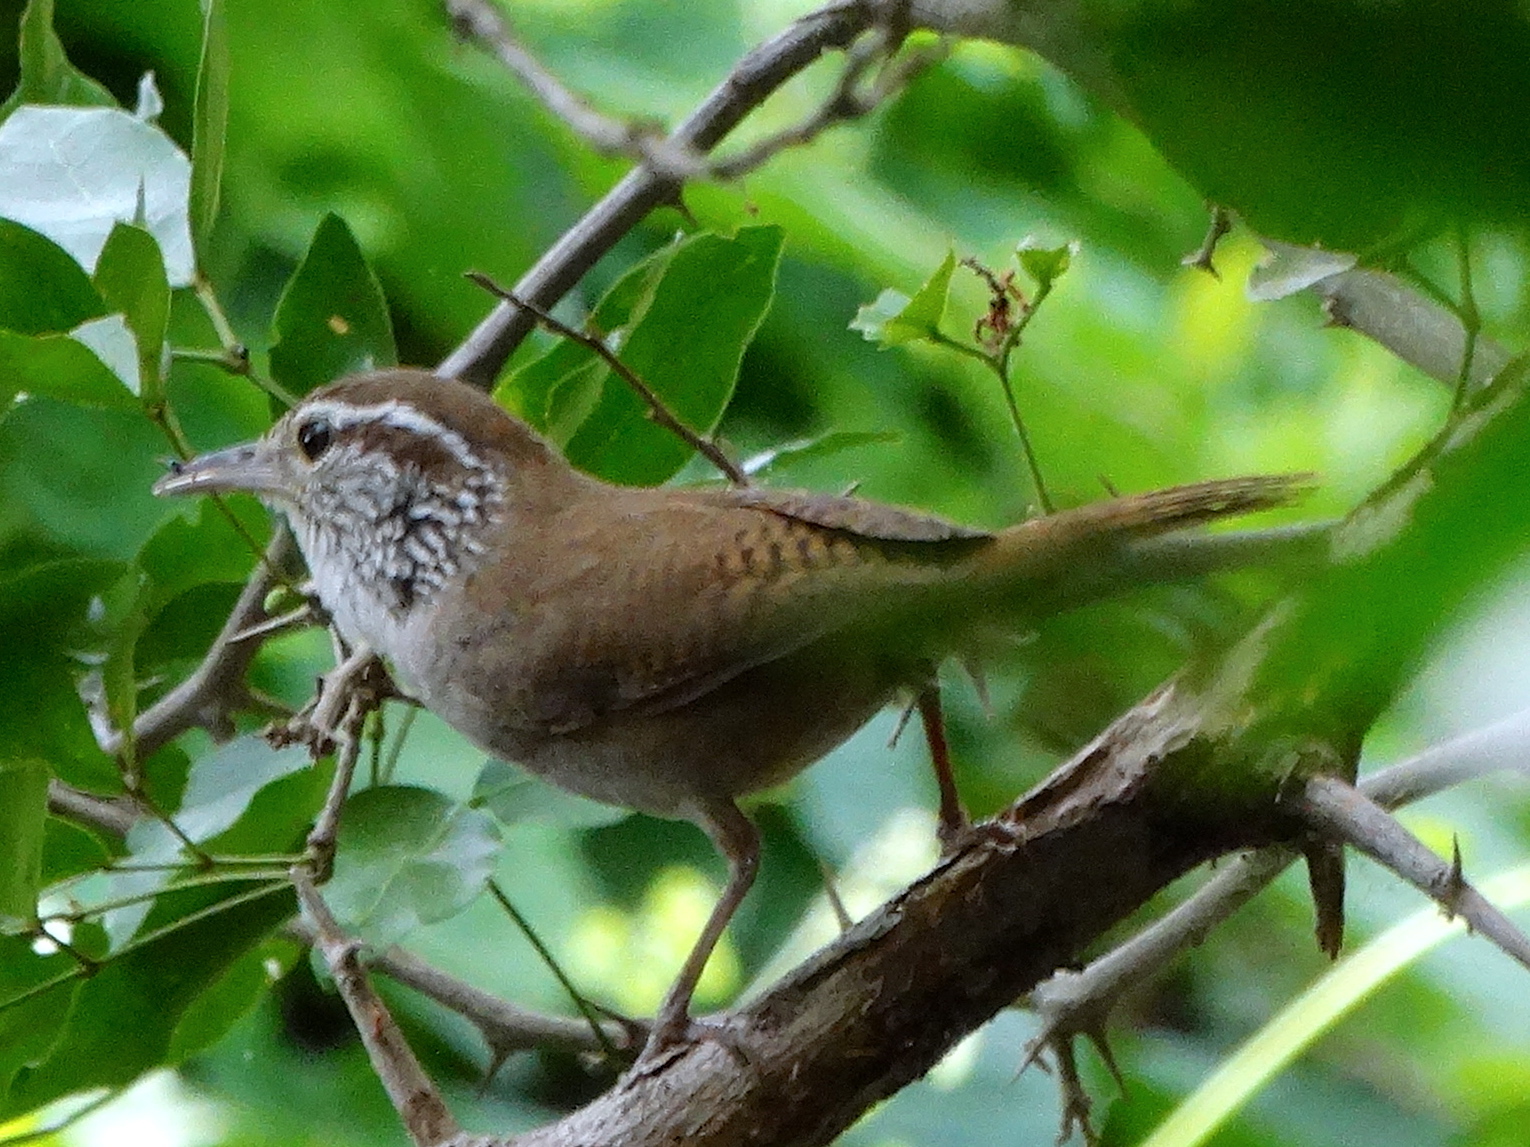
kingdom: Animalia
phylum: Chordata
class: Aves
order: Passeriformes
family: Troglodytidae
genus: Thryophilus
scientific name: Thryophilus sinaloa
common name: Sinaloa wren
